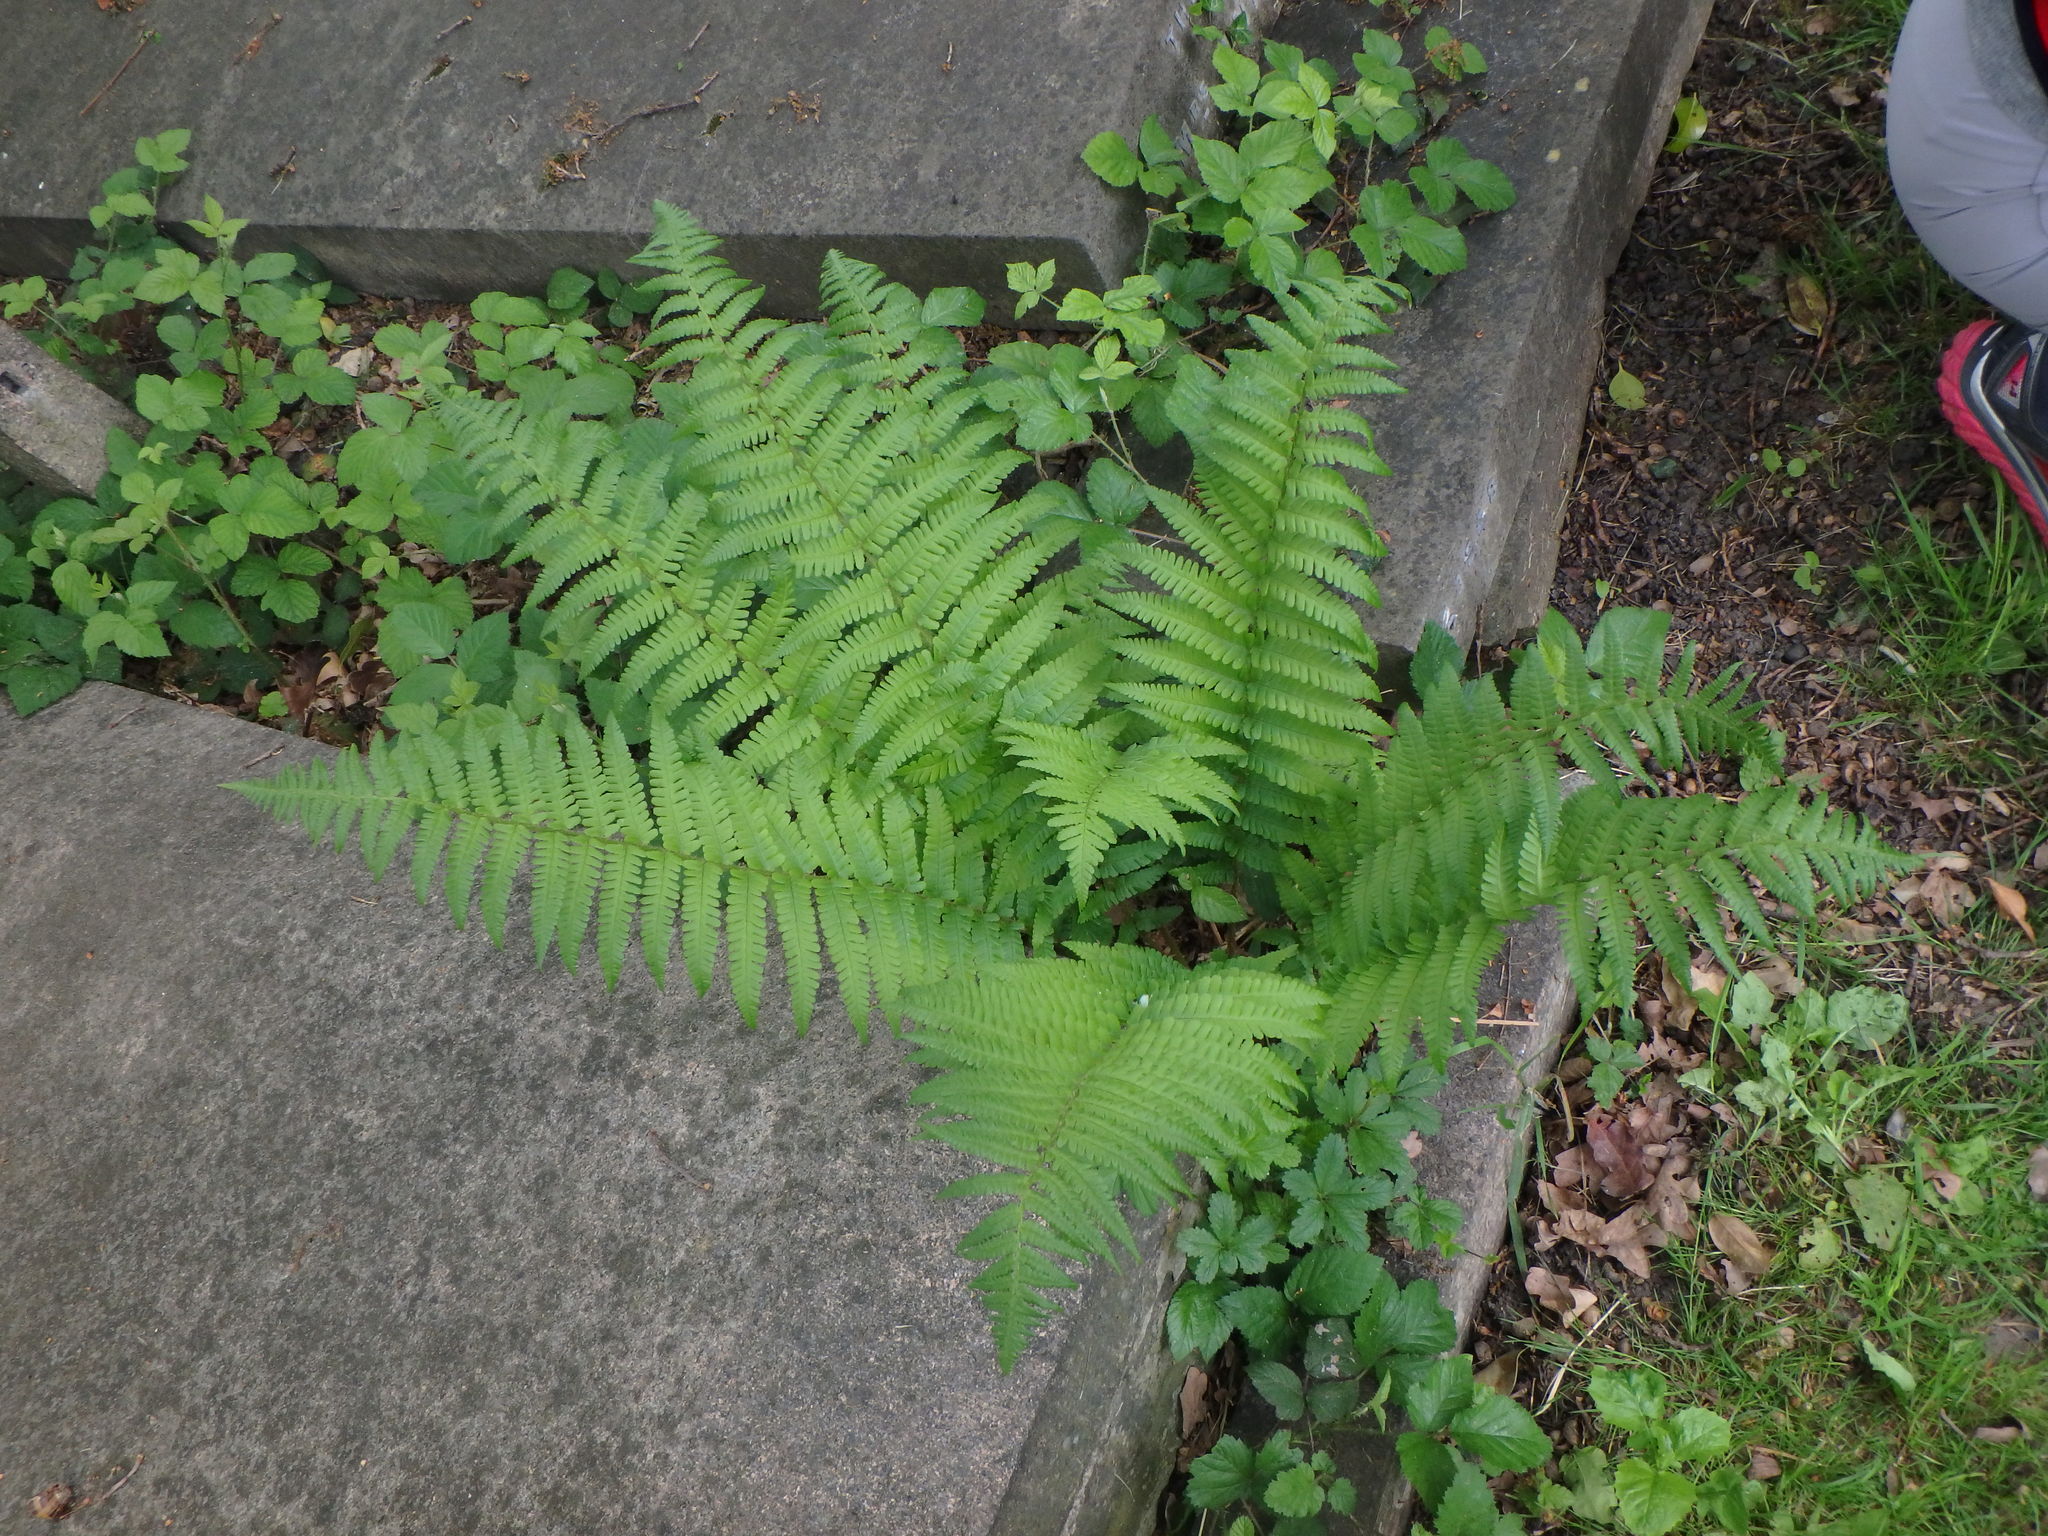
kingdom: Plantae
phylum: Tracheophyta
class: Polypodiopsida
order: Polypodiales
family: Dryopteridaceae
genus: Dryopteris
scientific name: Dryopteris filix-mas
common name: Male fern
